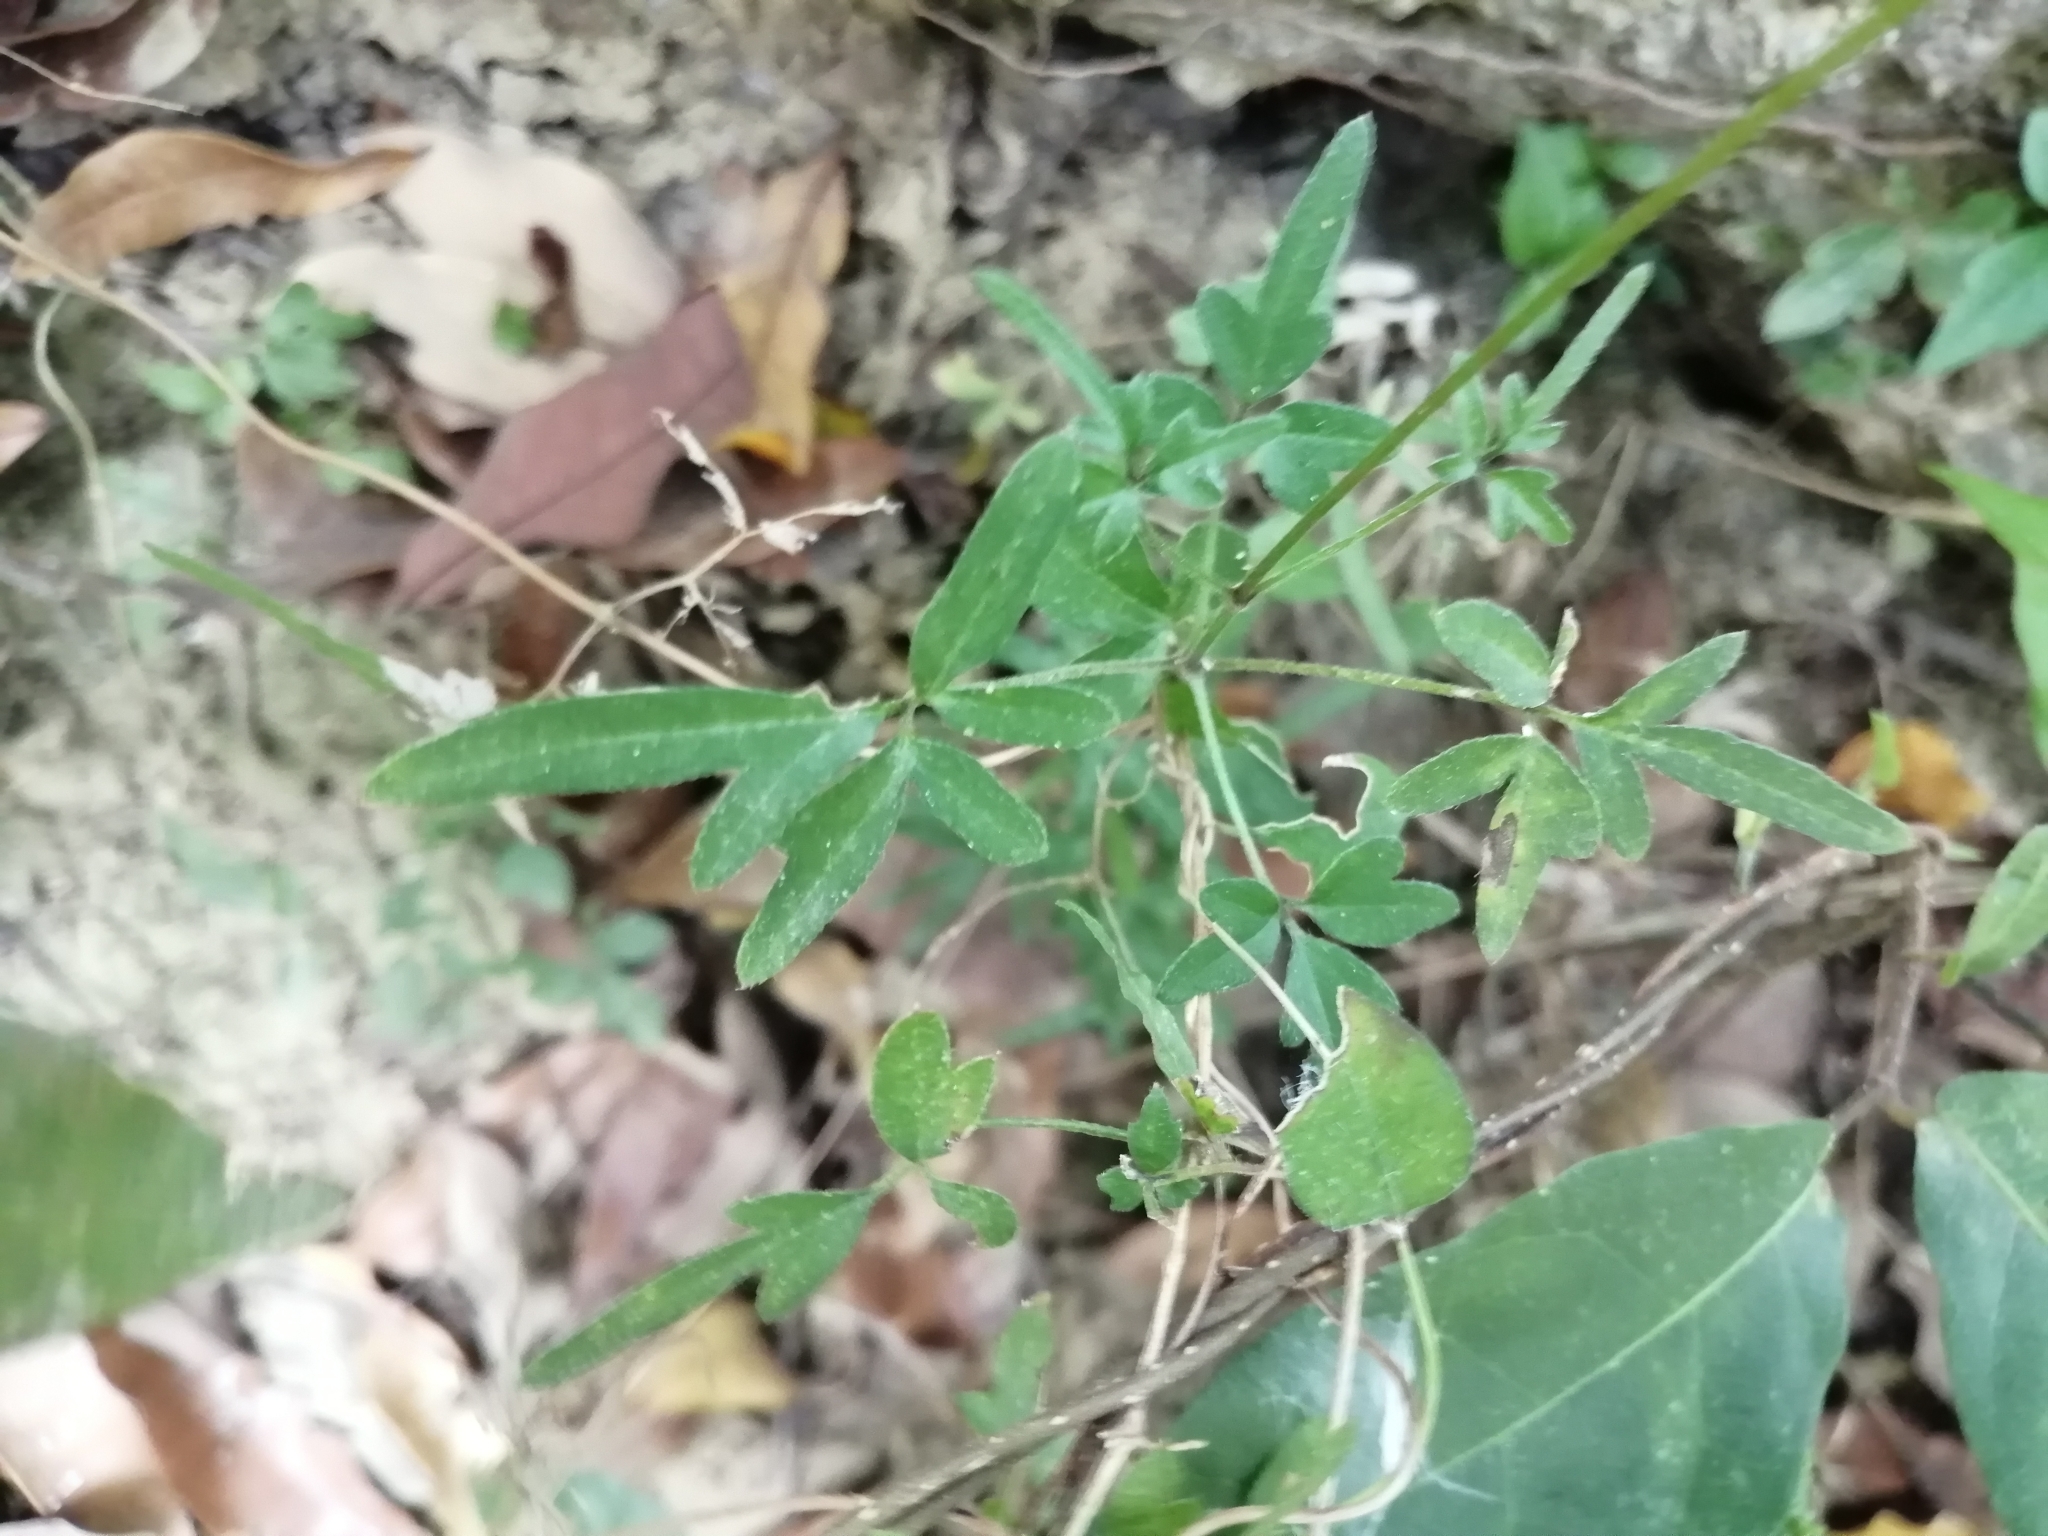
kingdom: Plantae
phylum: Tracheophyta
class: Polypodiopsida
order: Schizaeales
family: Lygodiaceae
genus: Lygodium
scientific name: Lygodium japonicum
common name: Japanese climbing fern
